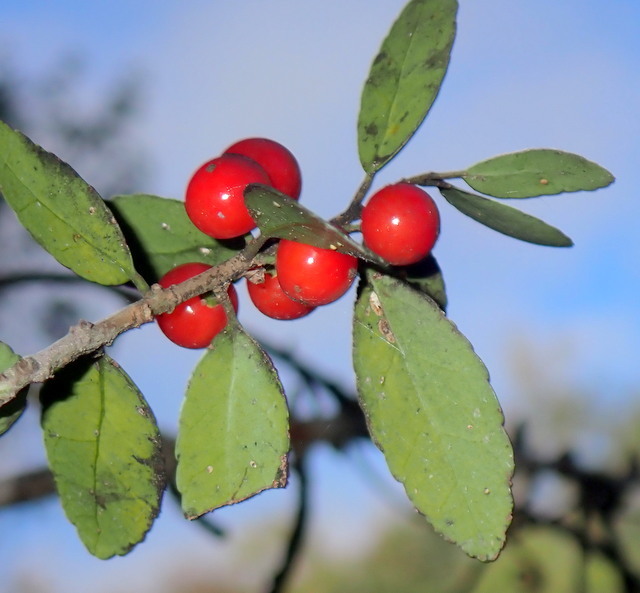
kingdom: Plantae
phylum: Tracheophyta
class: Magnoliopsida
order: Aquifoliales
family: Aquifoliaceae
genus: Ilex
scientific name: Ilex vomitoria
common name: Yaupon holly
